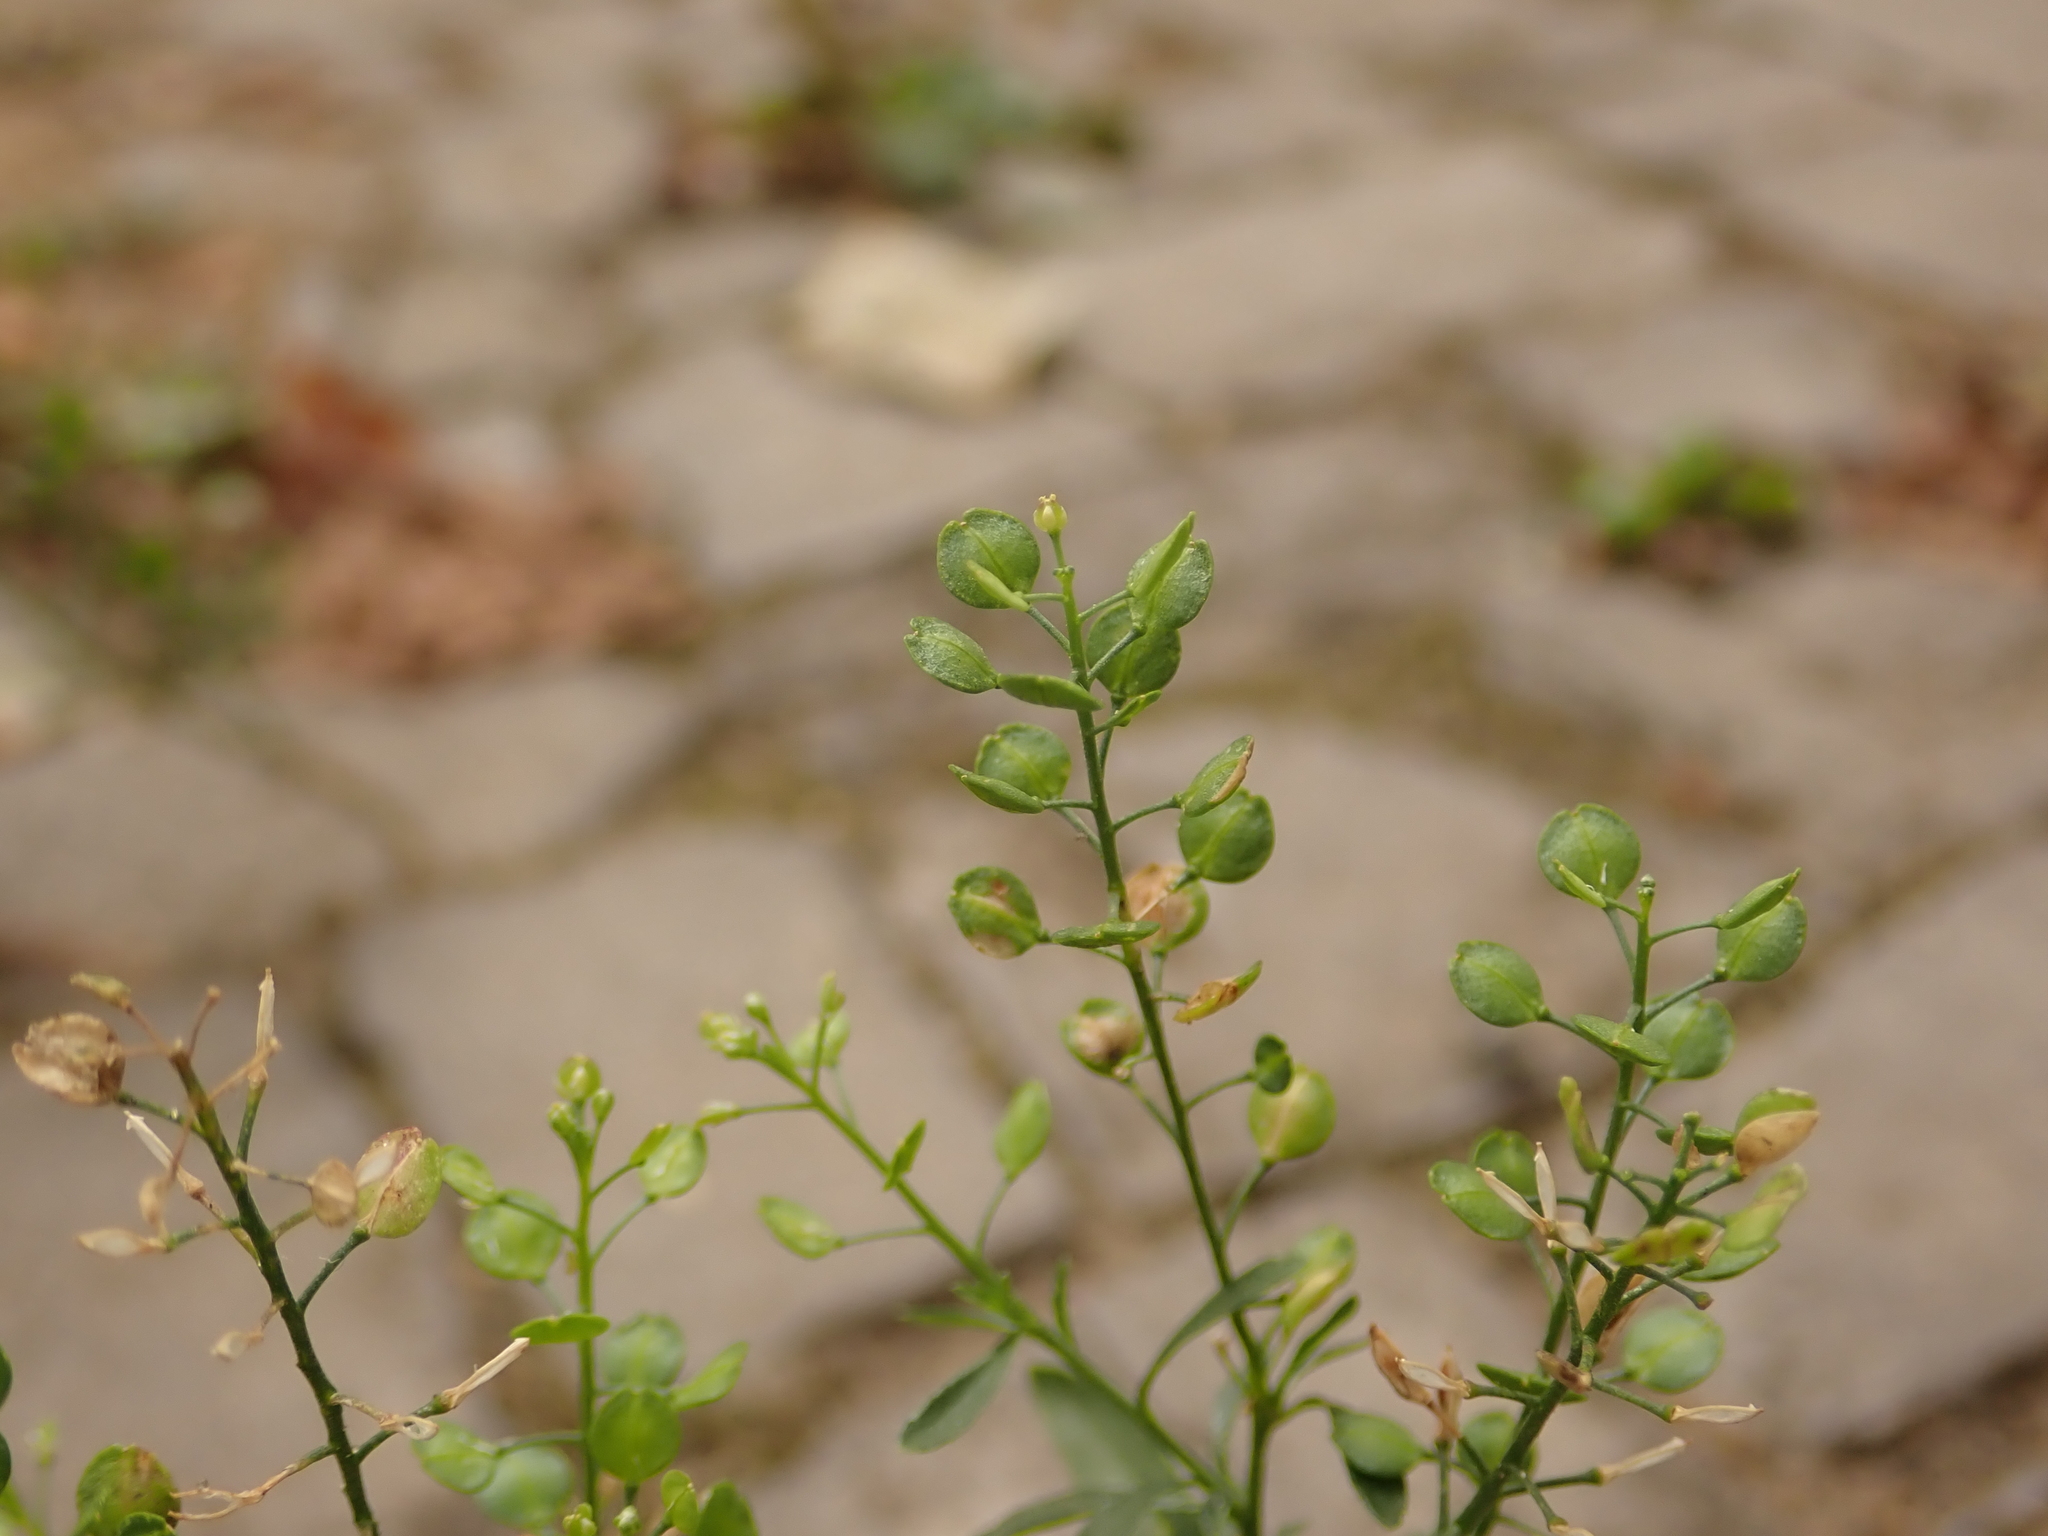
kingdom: Plantae
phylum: Tracheophyta
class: Magnoliopsida
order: Brassicales
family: Brassicaceae
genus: Lepidium
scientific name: Lepidium virginicum
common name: Least pepperwort
